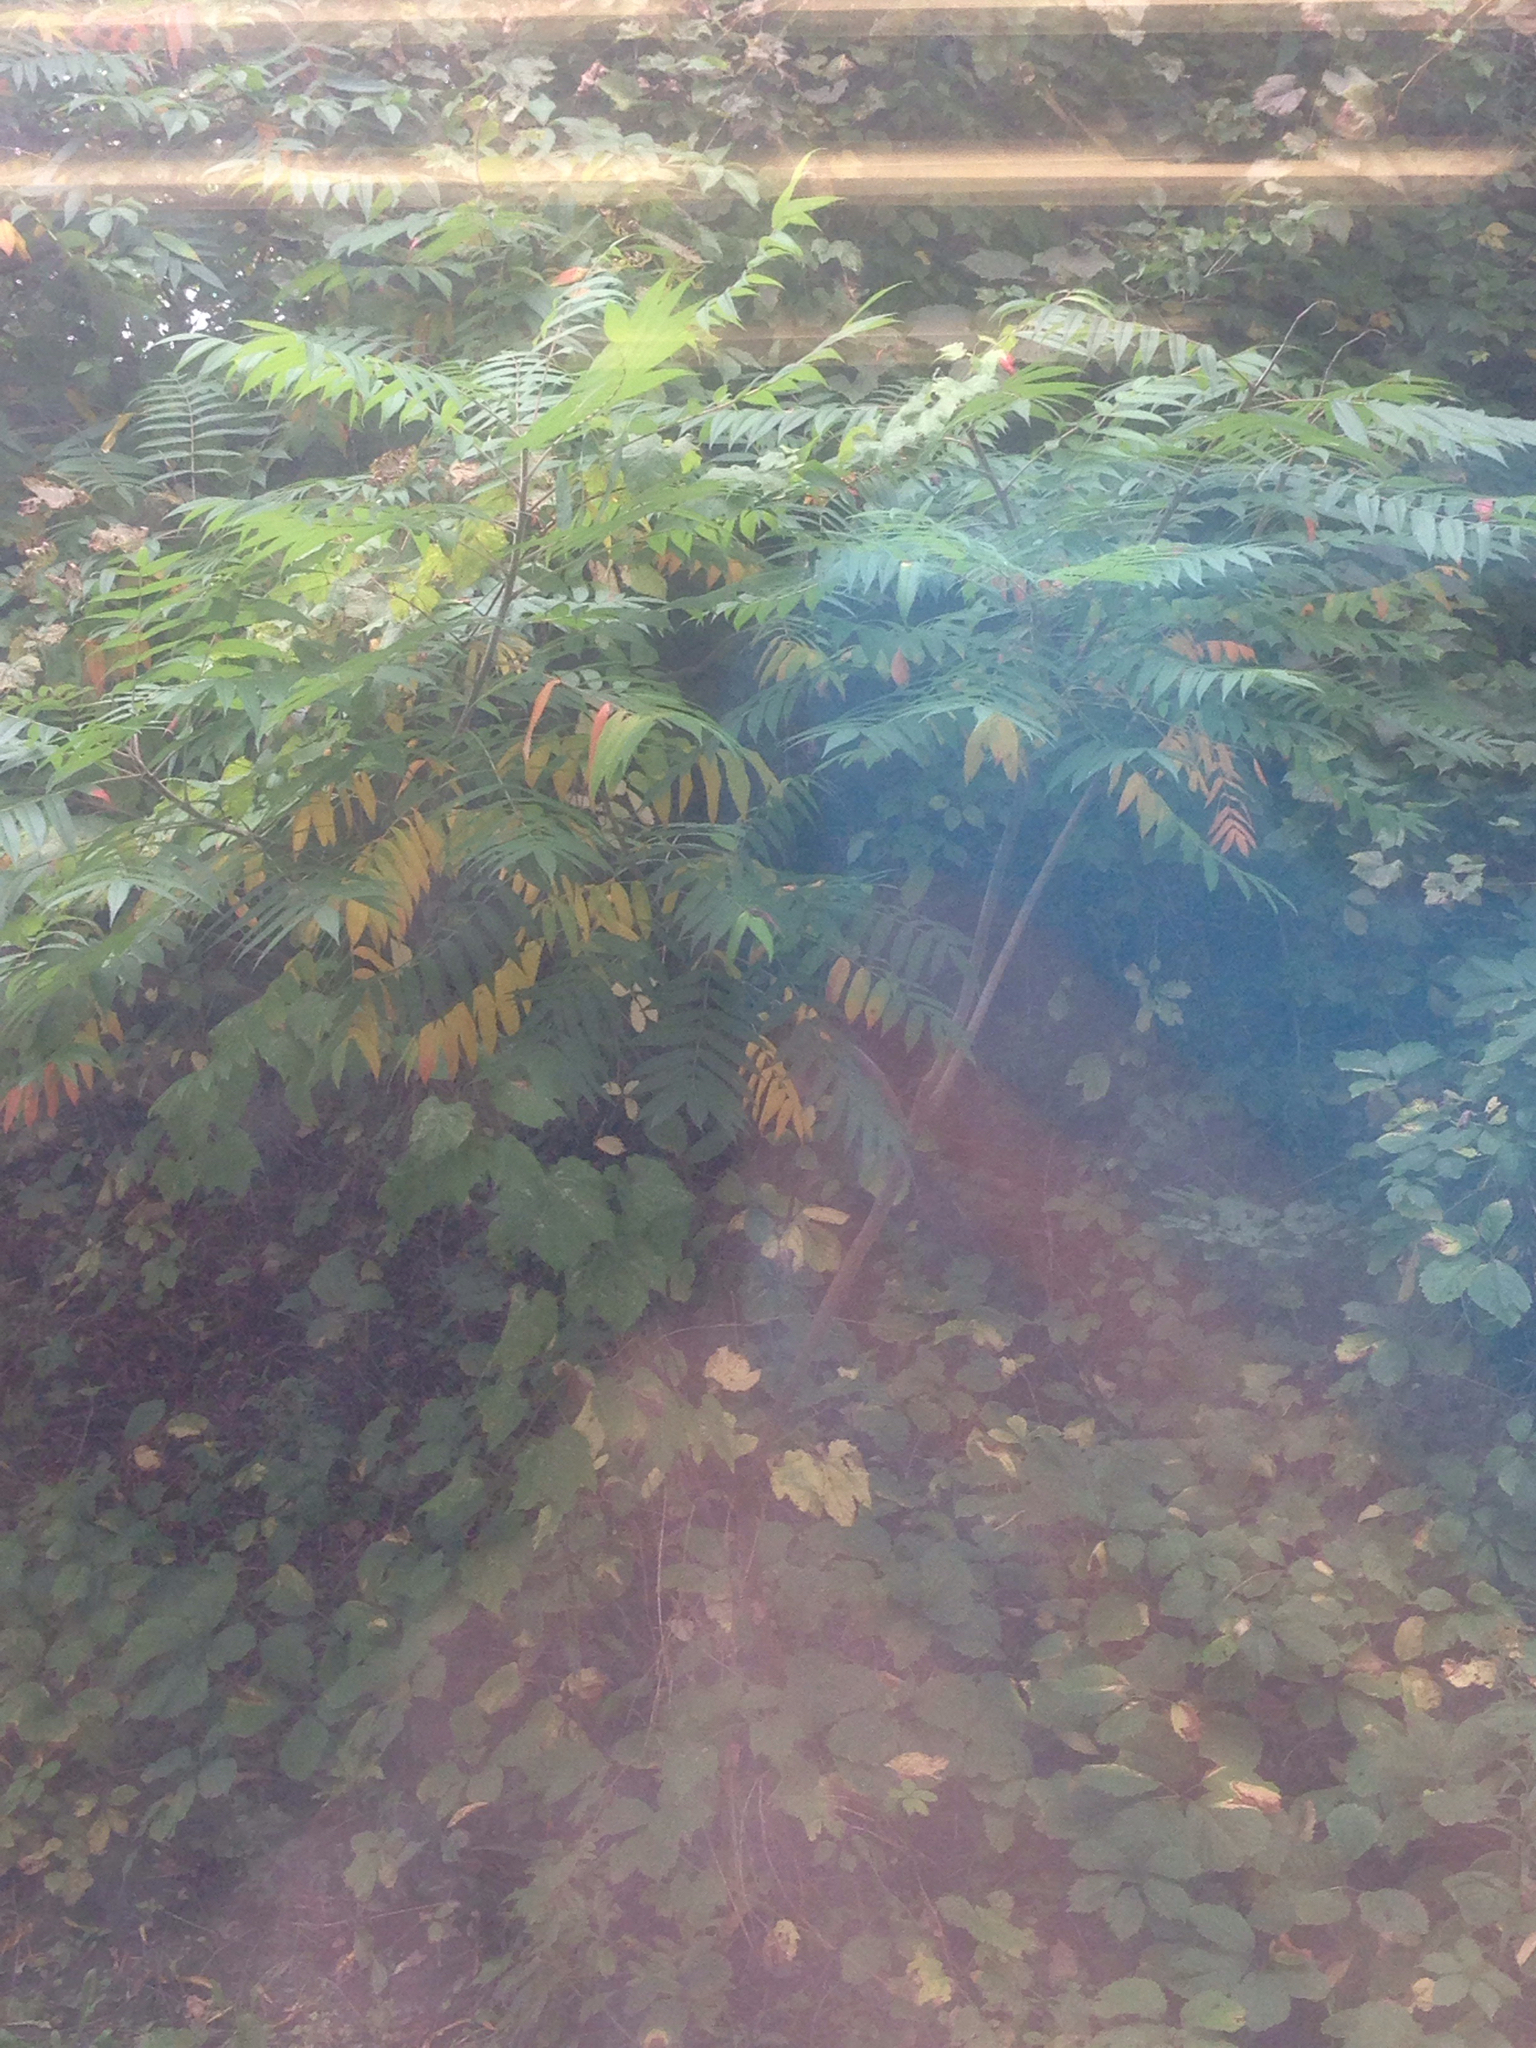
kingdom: Plantae
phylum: Tracheophyta
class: Magnoliopsida
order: Sapindales
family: Anacardiaceae
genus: Rhus
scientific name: Rhus typhina
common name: Staghorn sumac
